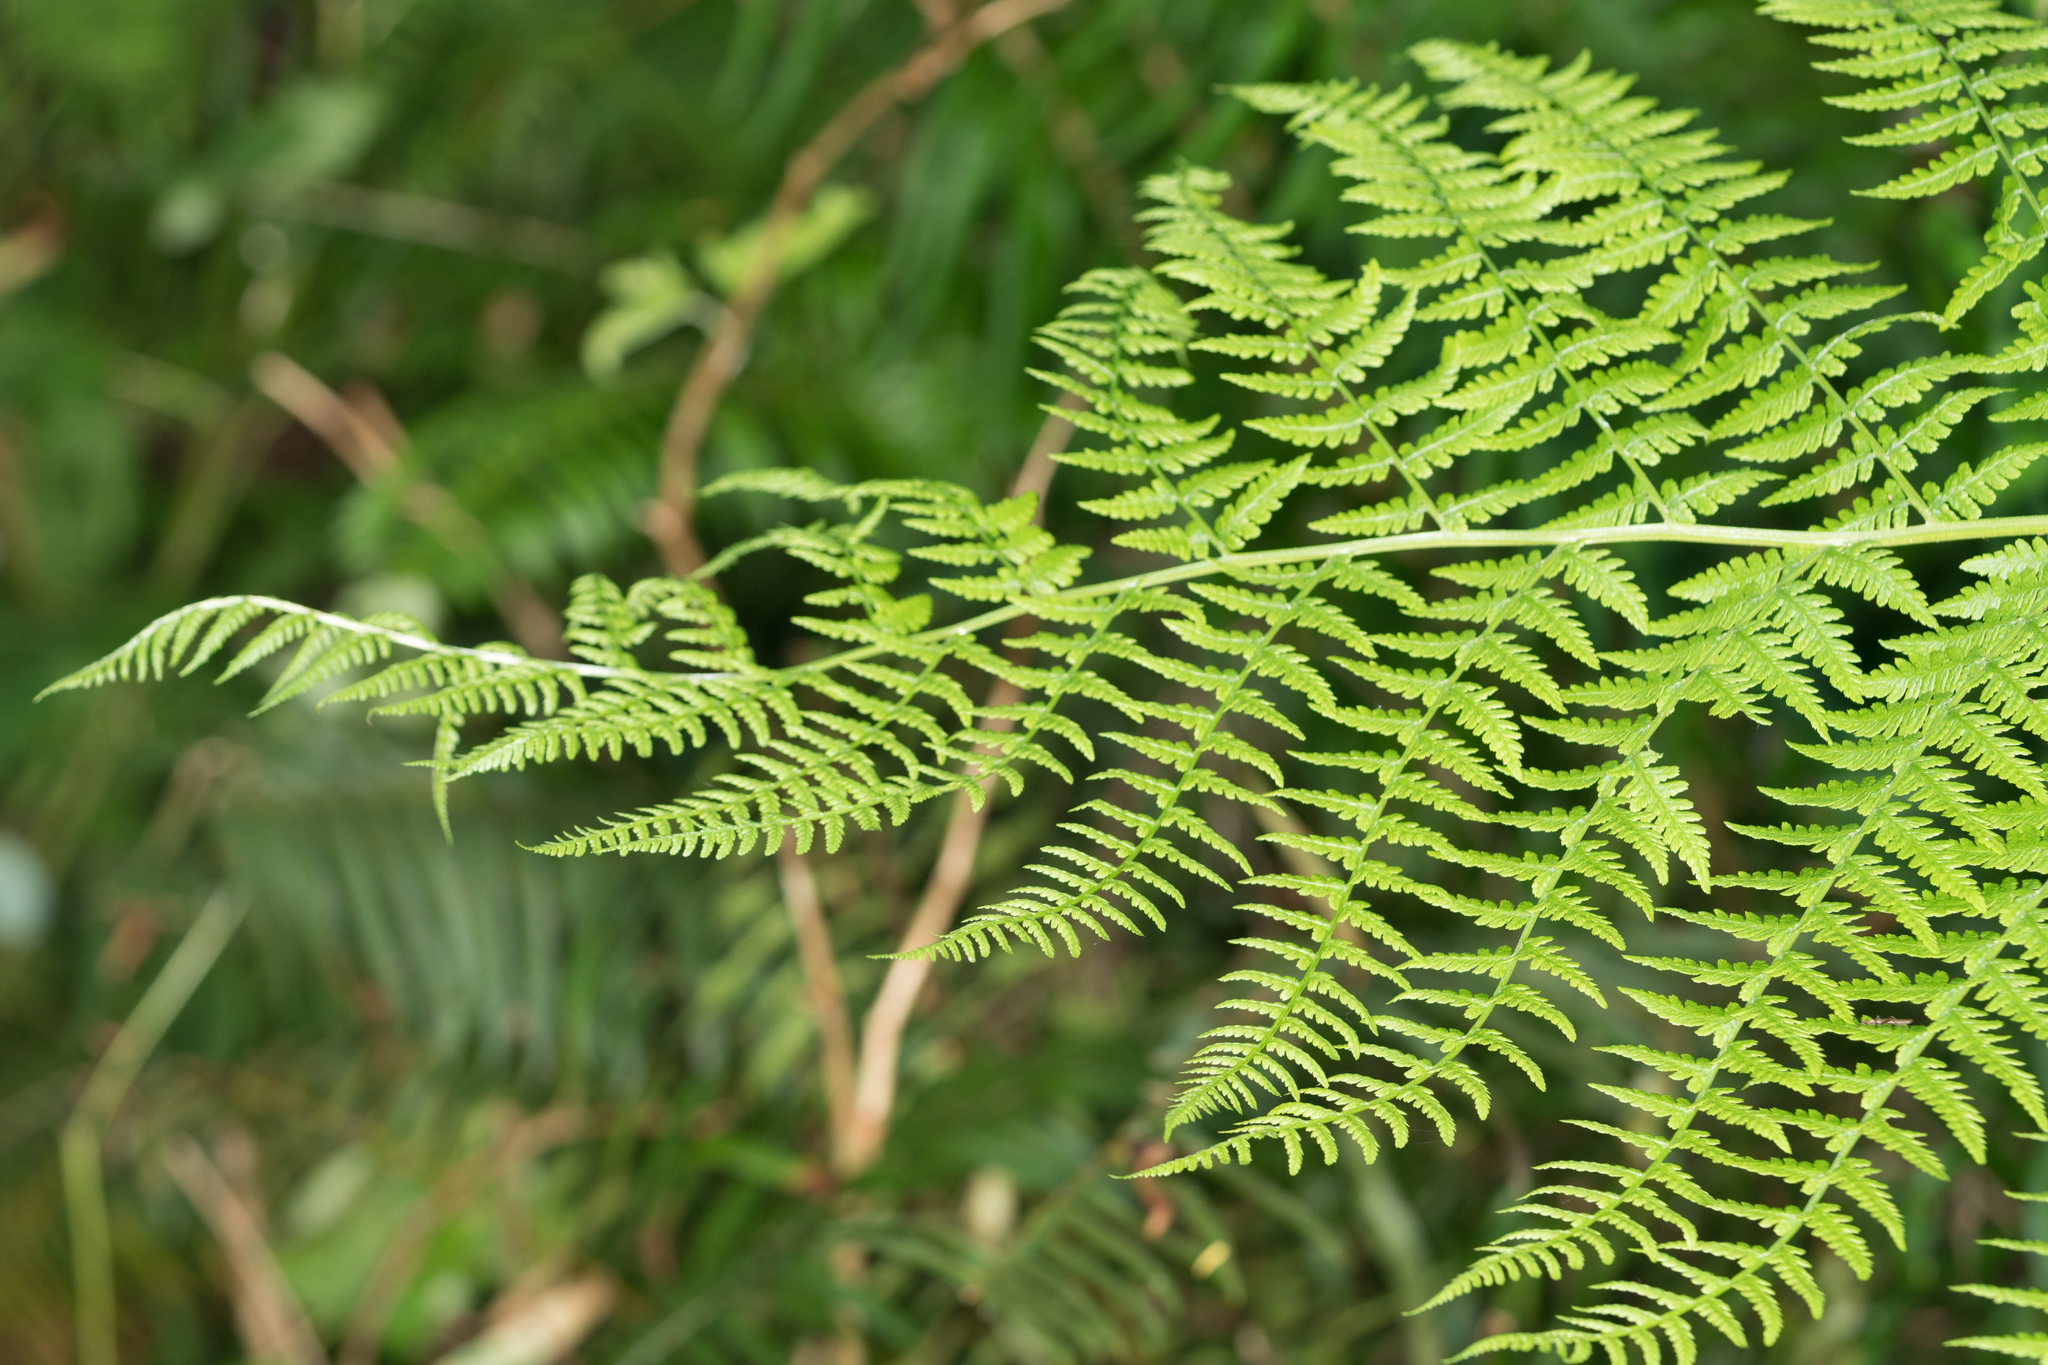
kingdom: Plantae
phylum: Tracheophyta
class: Polypodiopsida
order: Polypodiales
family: Athyriaceae
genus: Athyrium
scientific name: Athyrium filix-femina
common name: Lady fern
